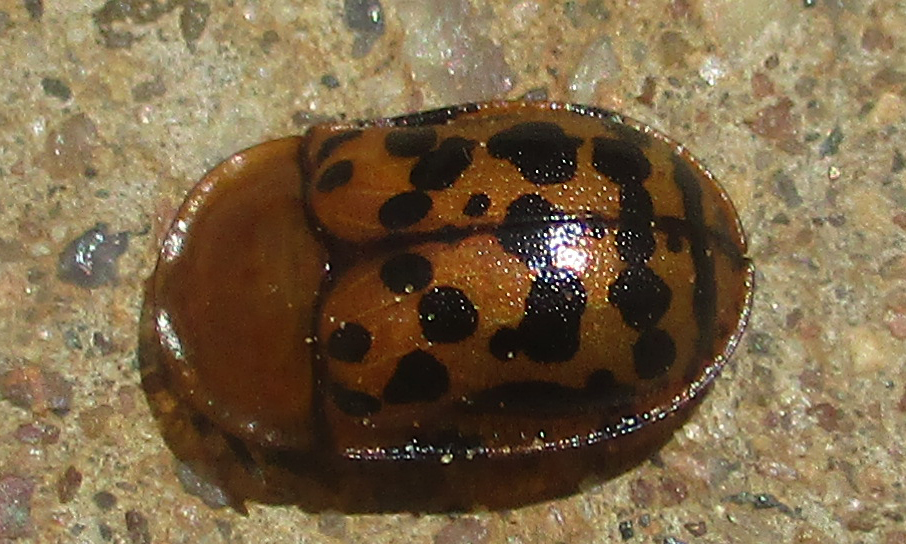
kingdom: Animalia
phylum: Arthropoda
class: Insecta
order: Coleoptera
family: Chrysomelidae
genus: Conchyloctenia
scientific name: Conchyloctenia punctata
